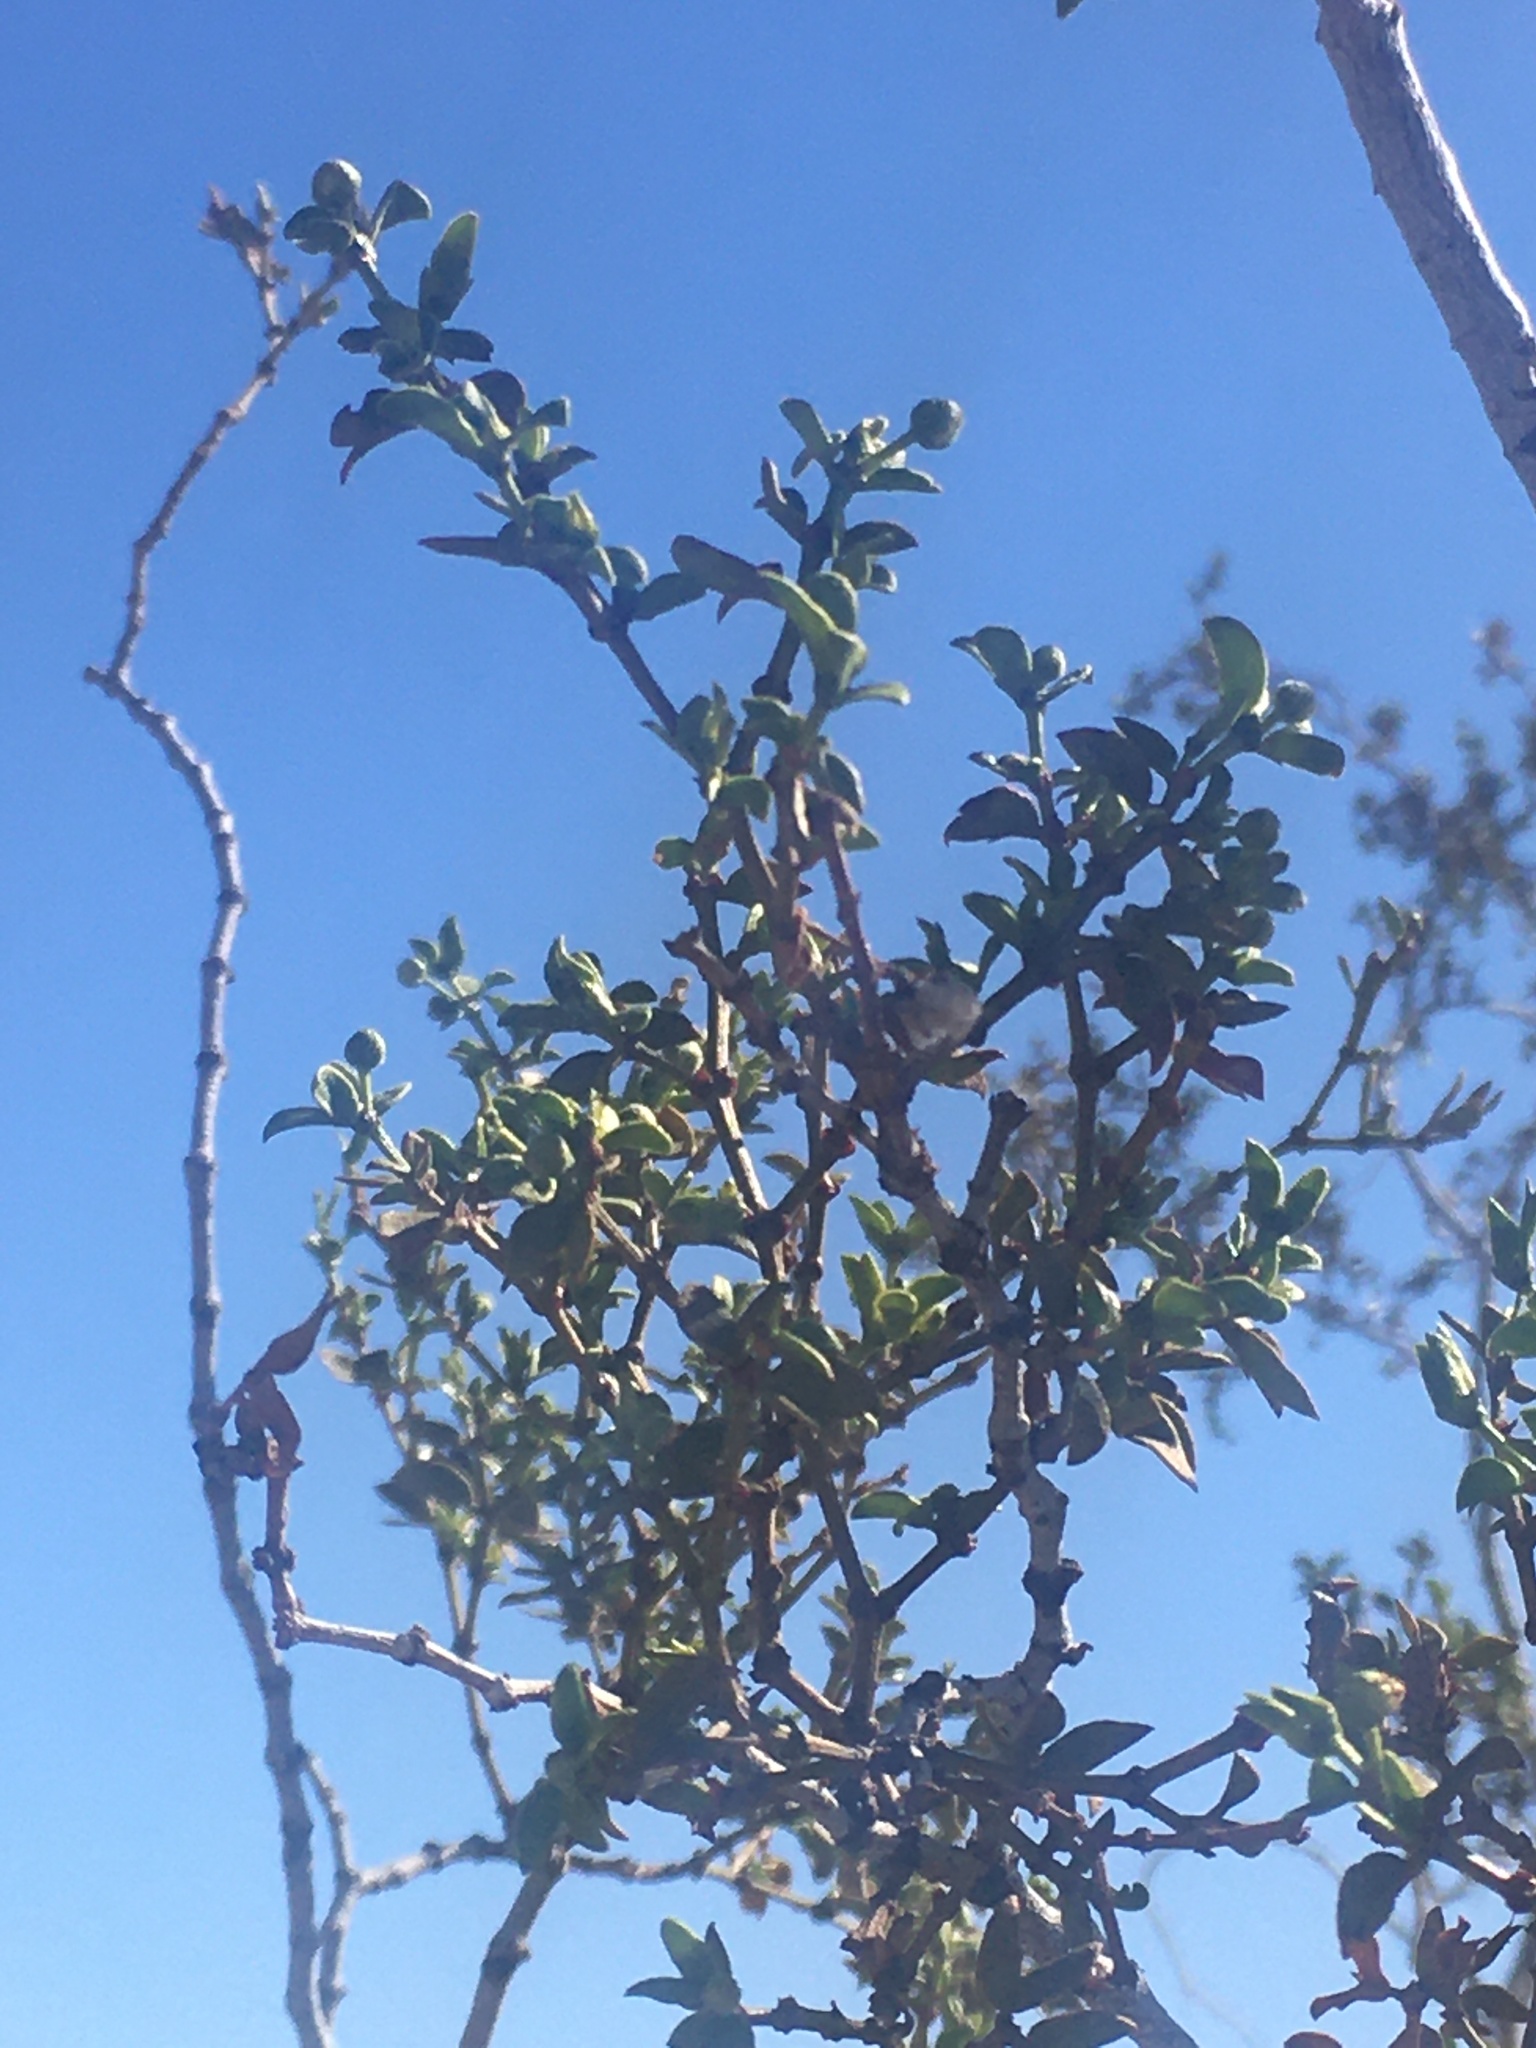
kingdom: Plantae
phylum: Tracheophyta
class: Magnoliopsida
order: Zygophyllales
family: Zygophyllaceae
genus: Larrea
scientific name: Larrea tridentata
